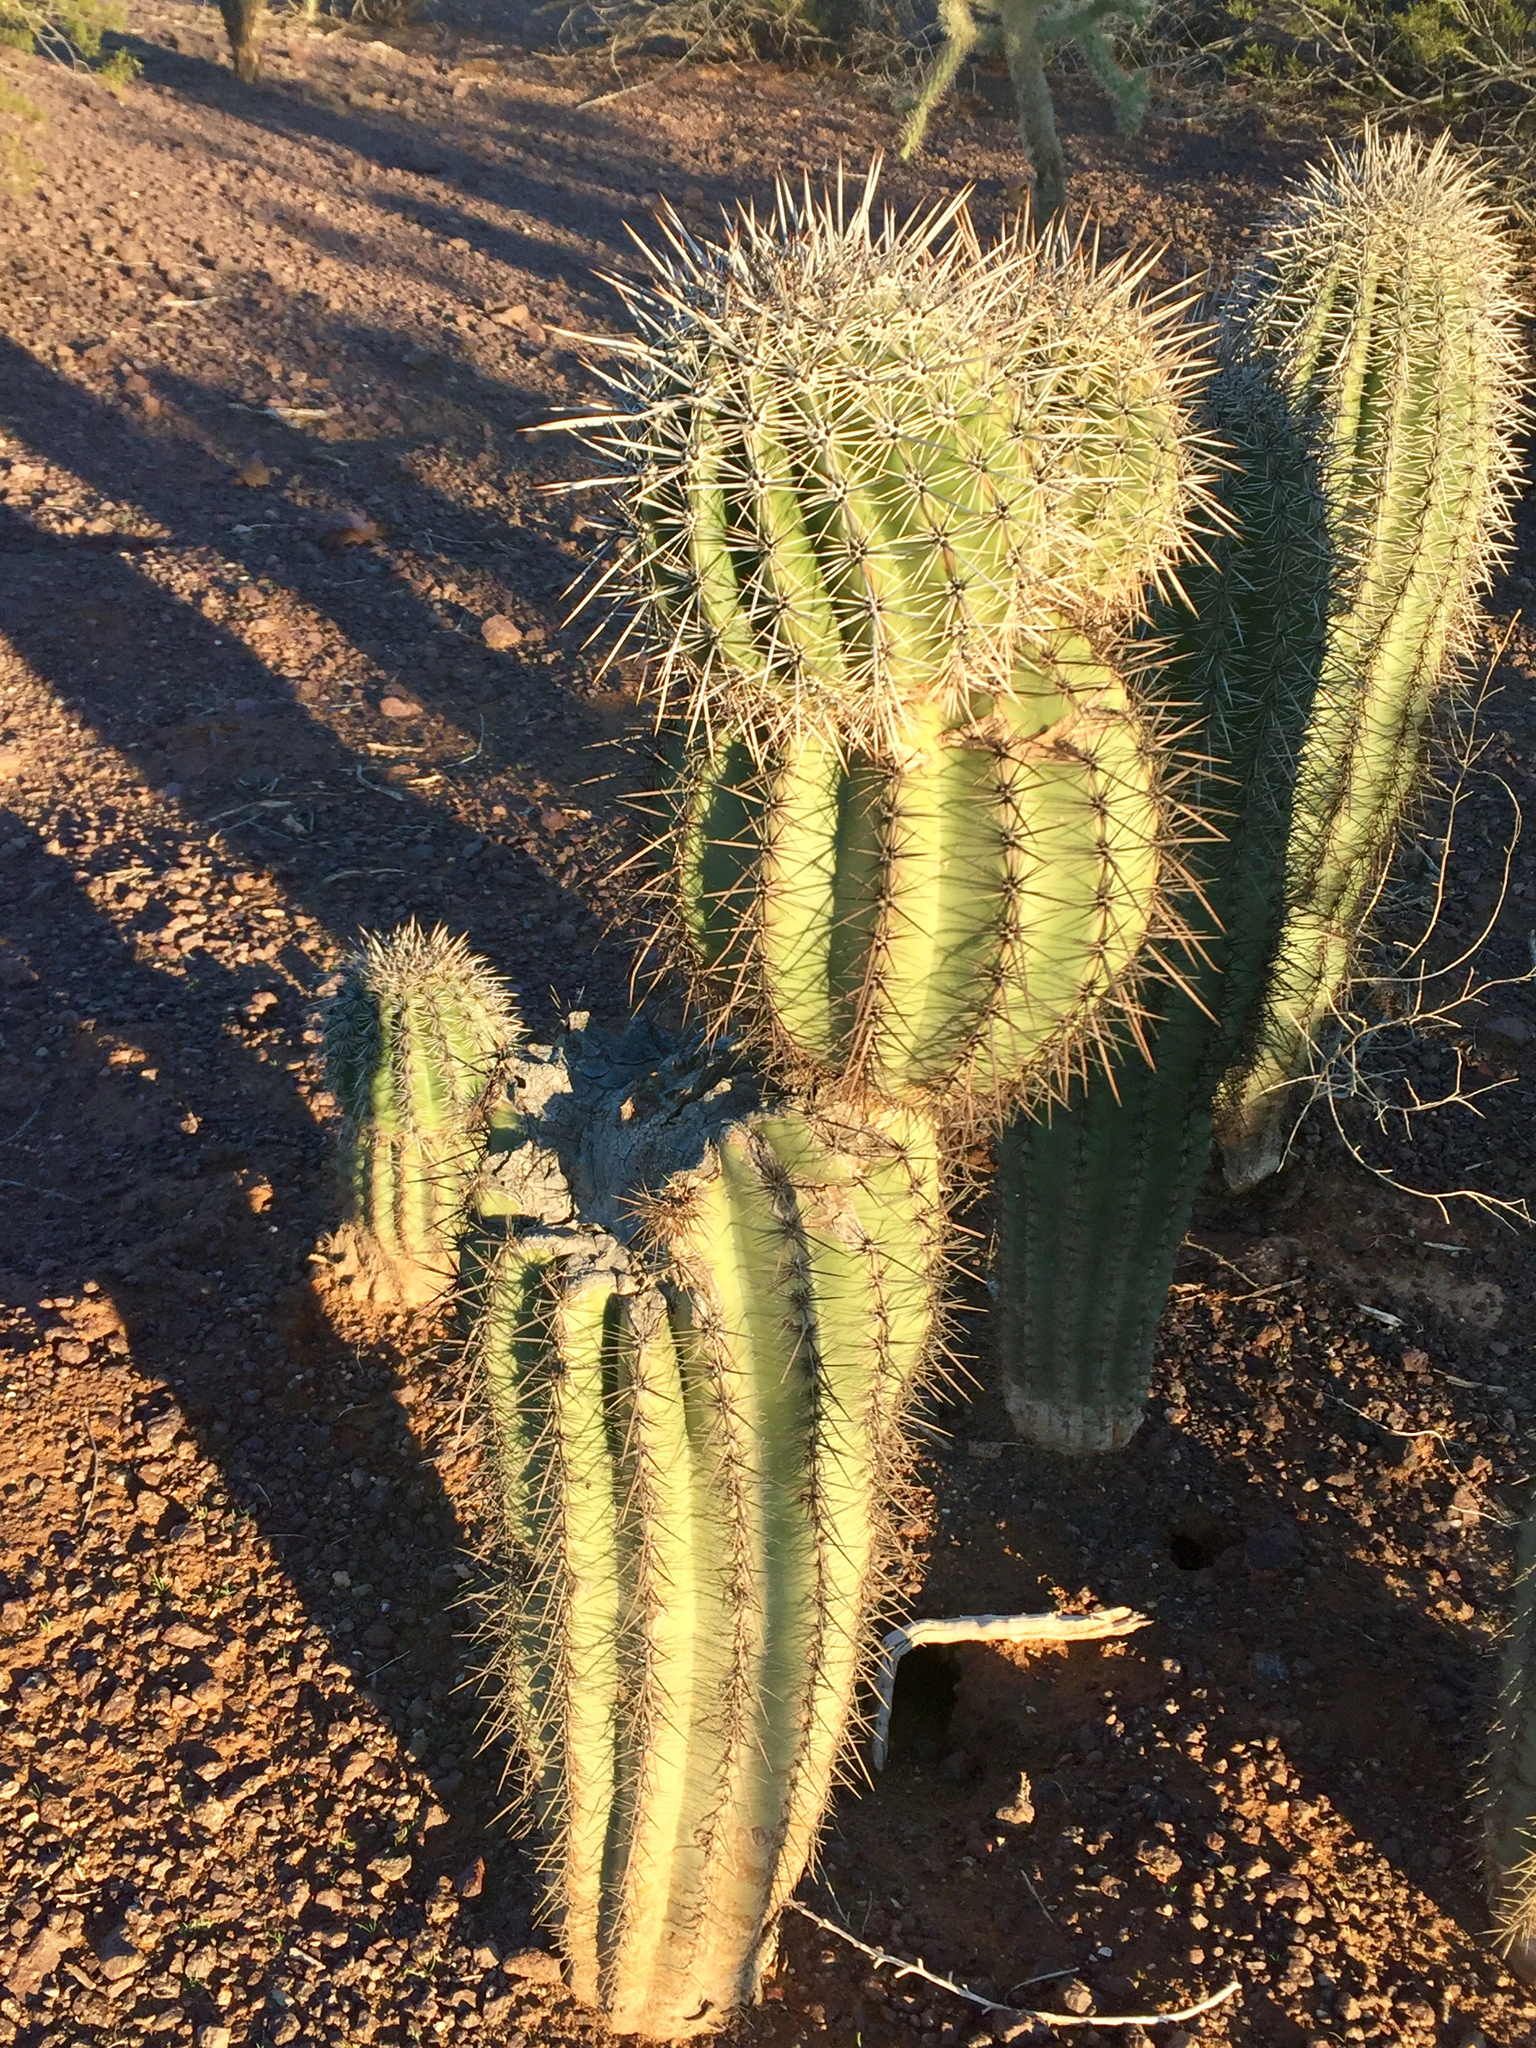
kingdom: Plantae
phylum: Tracheophyta
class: Magnoliopsida
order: Caryophyllales
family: Cactaceae
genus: Carnegiea
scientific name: Carnegiea gigantea
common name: Saguaro
